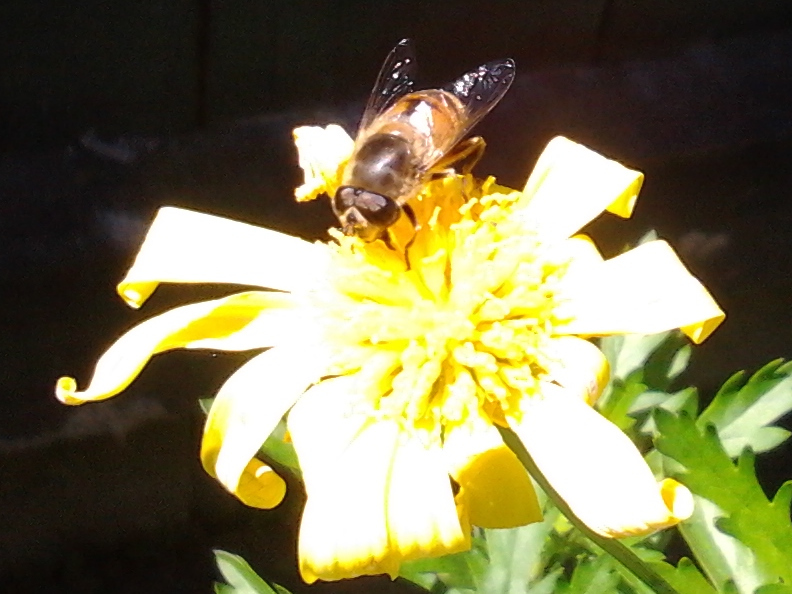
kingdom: Animalia
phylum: Arthropoda
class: Insecta
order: Diptera
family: Syrphidae
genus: Eristalis
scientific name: Eristalis tenax
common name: Drone fly
